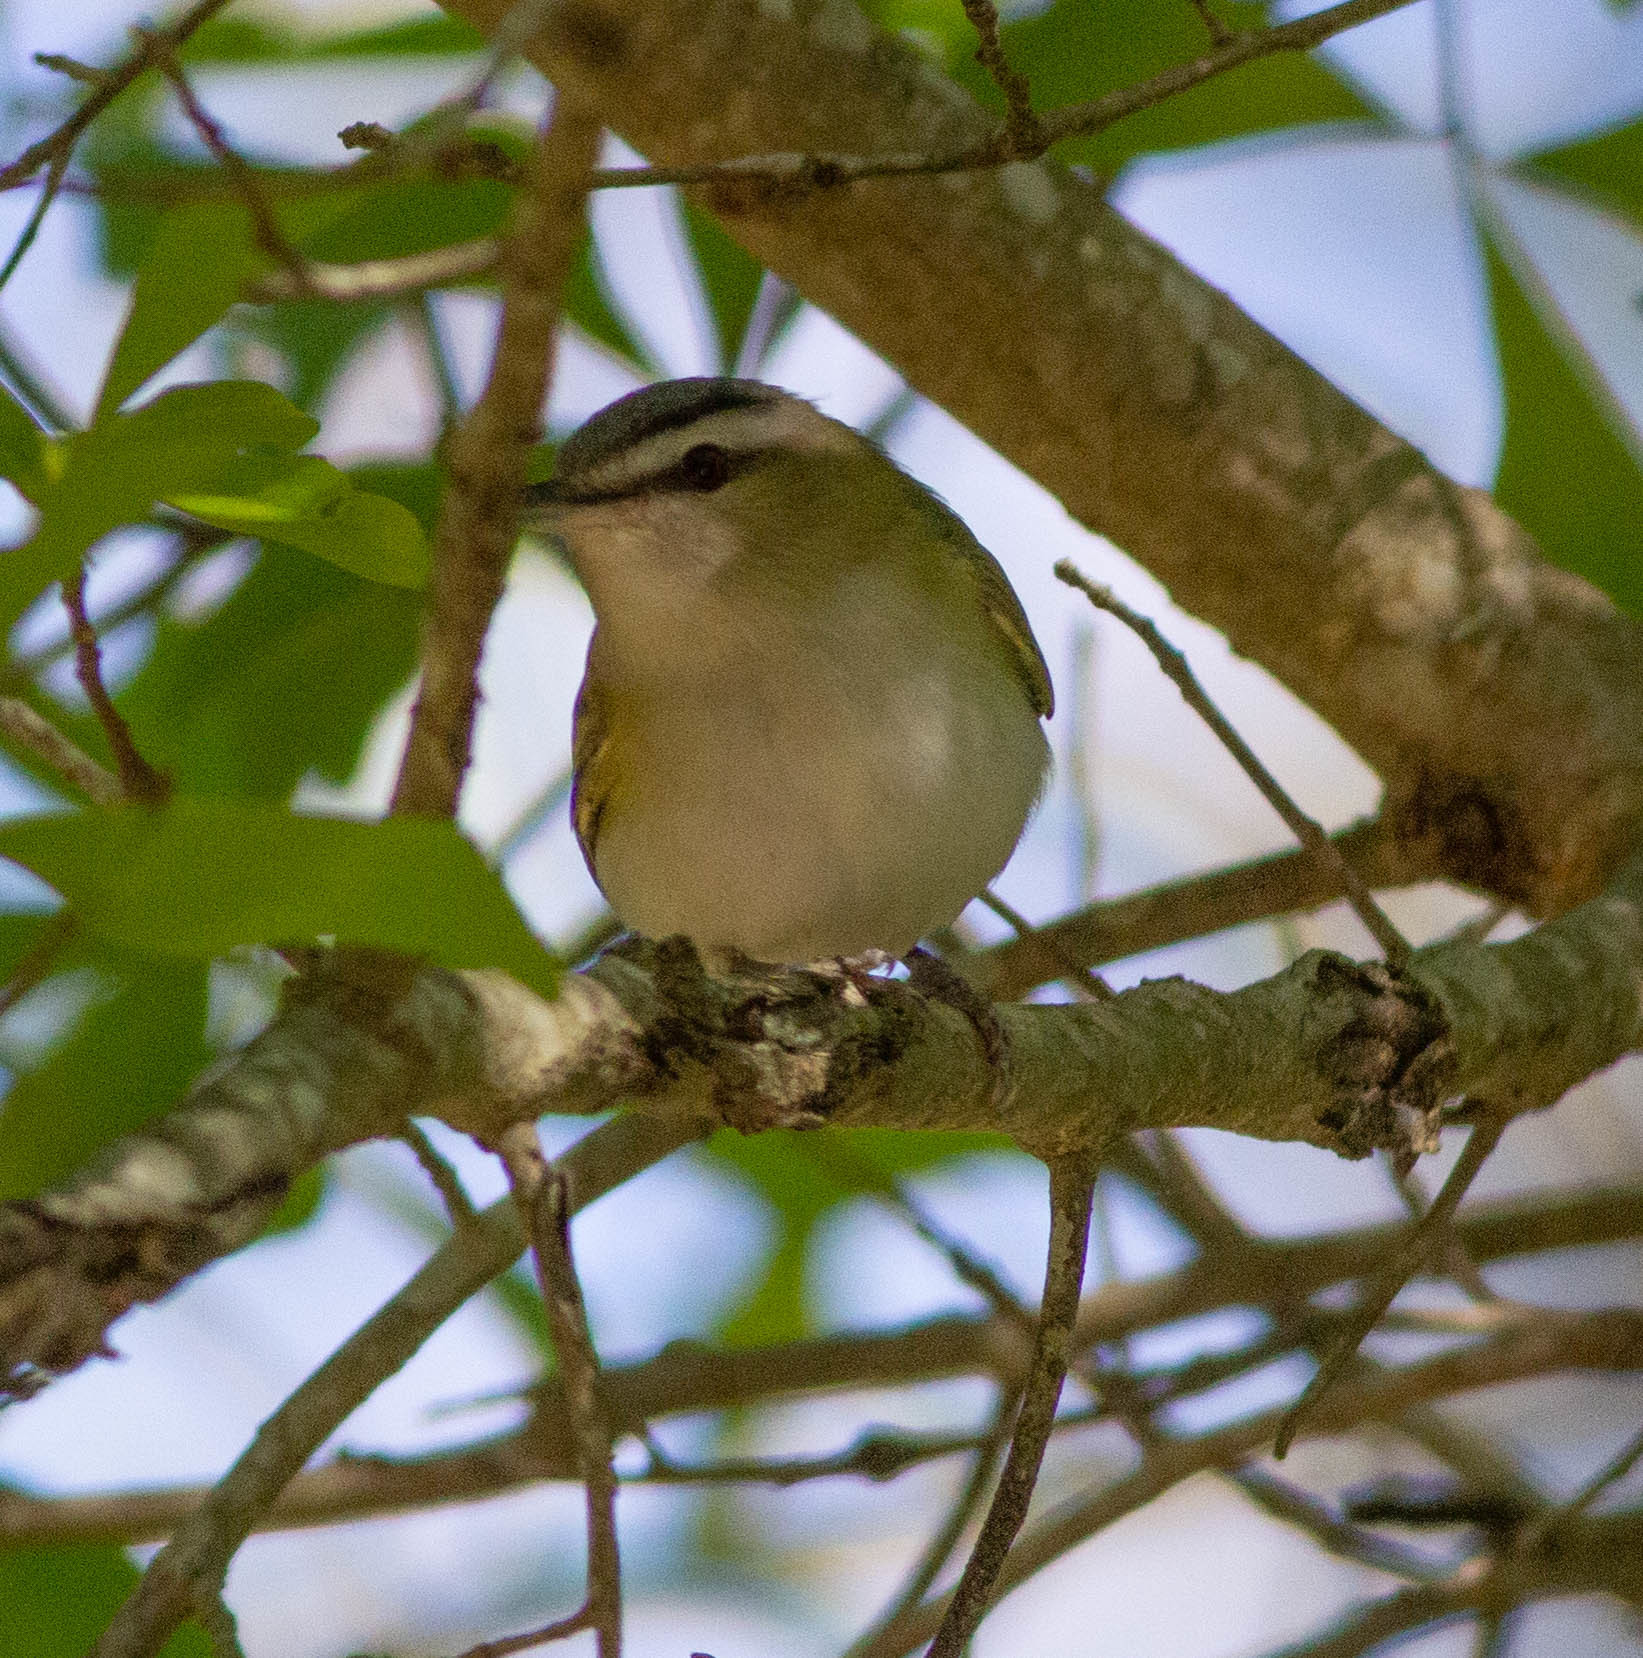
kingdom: Animalia
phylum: Chordata
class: Aves
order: Passeriformes
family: Vireonidae
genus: Vireo
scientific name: Vireo olivaceus
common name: Red-eyed vireo
